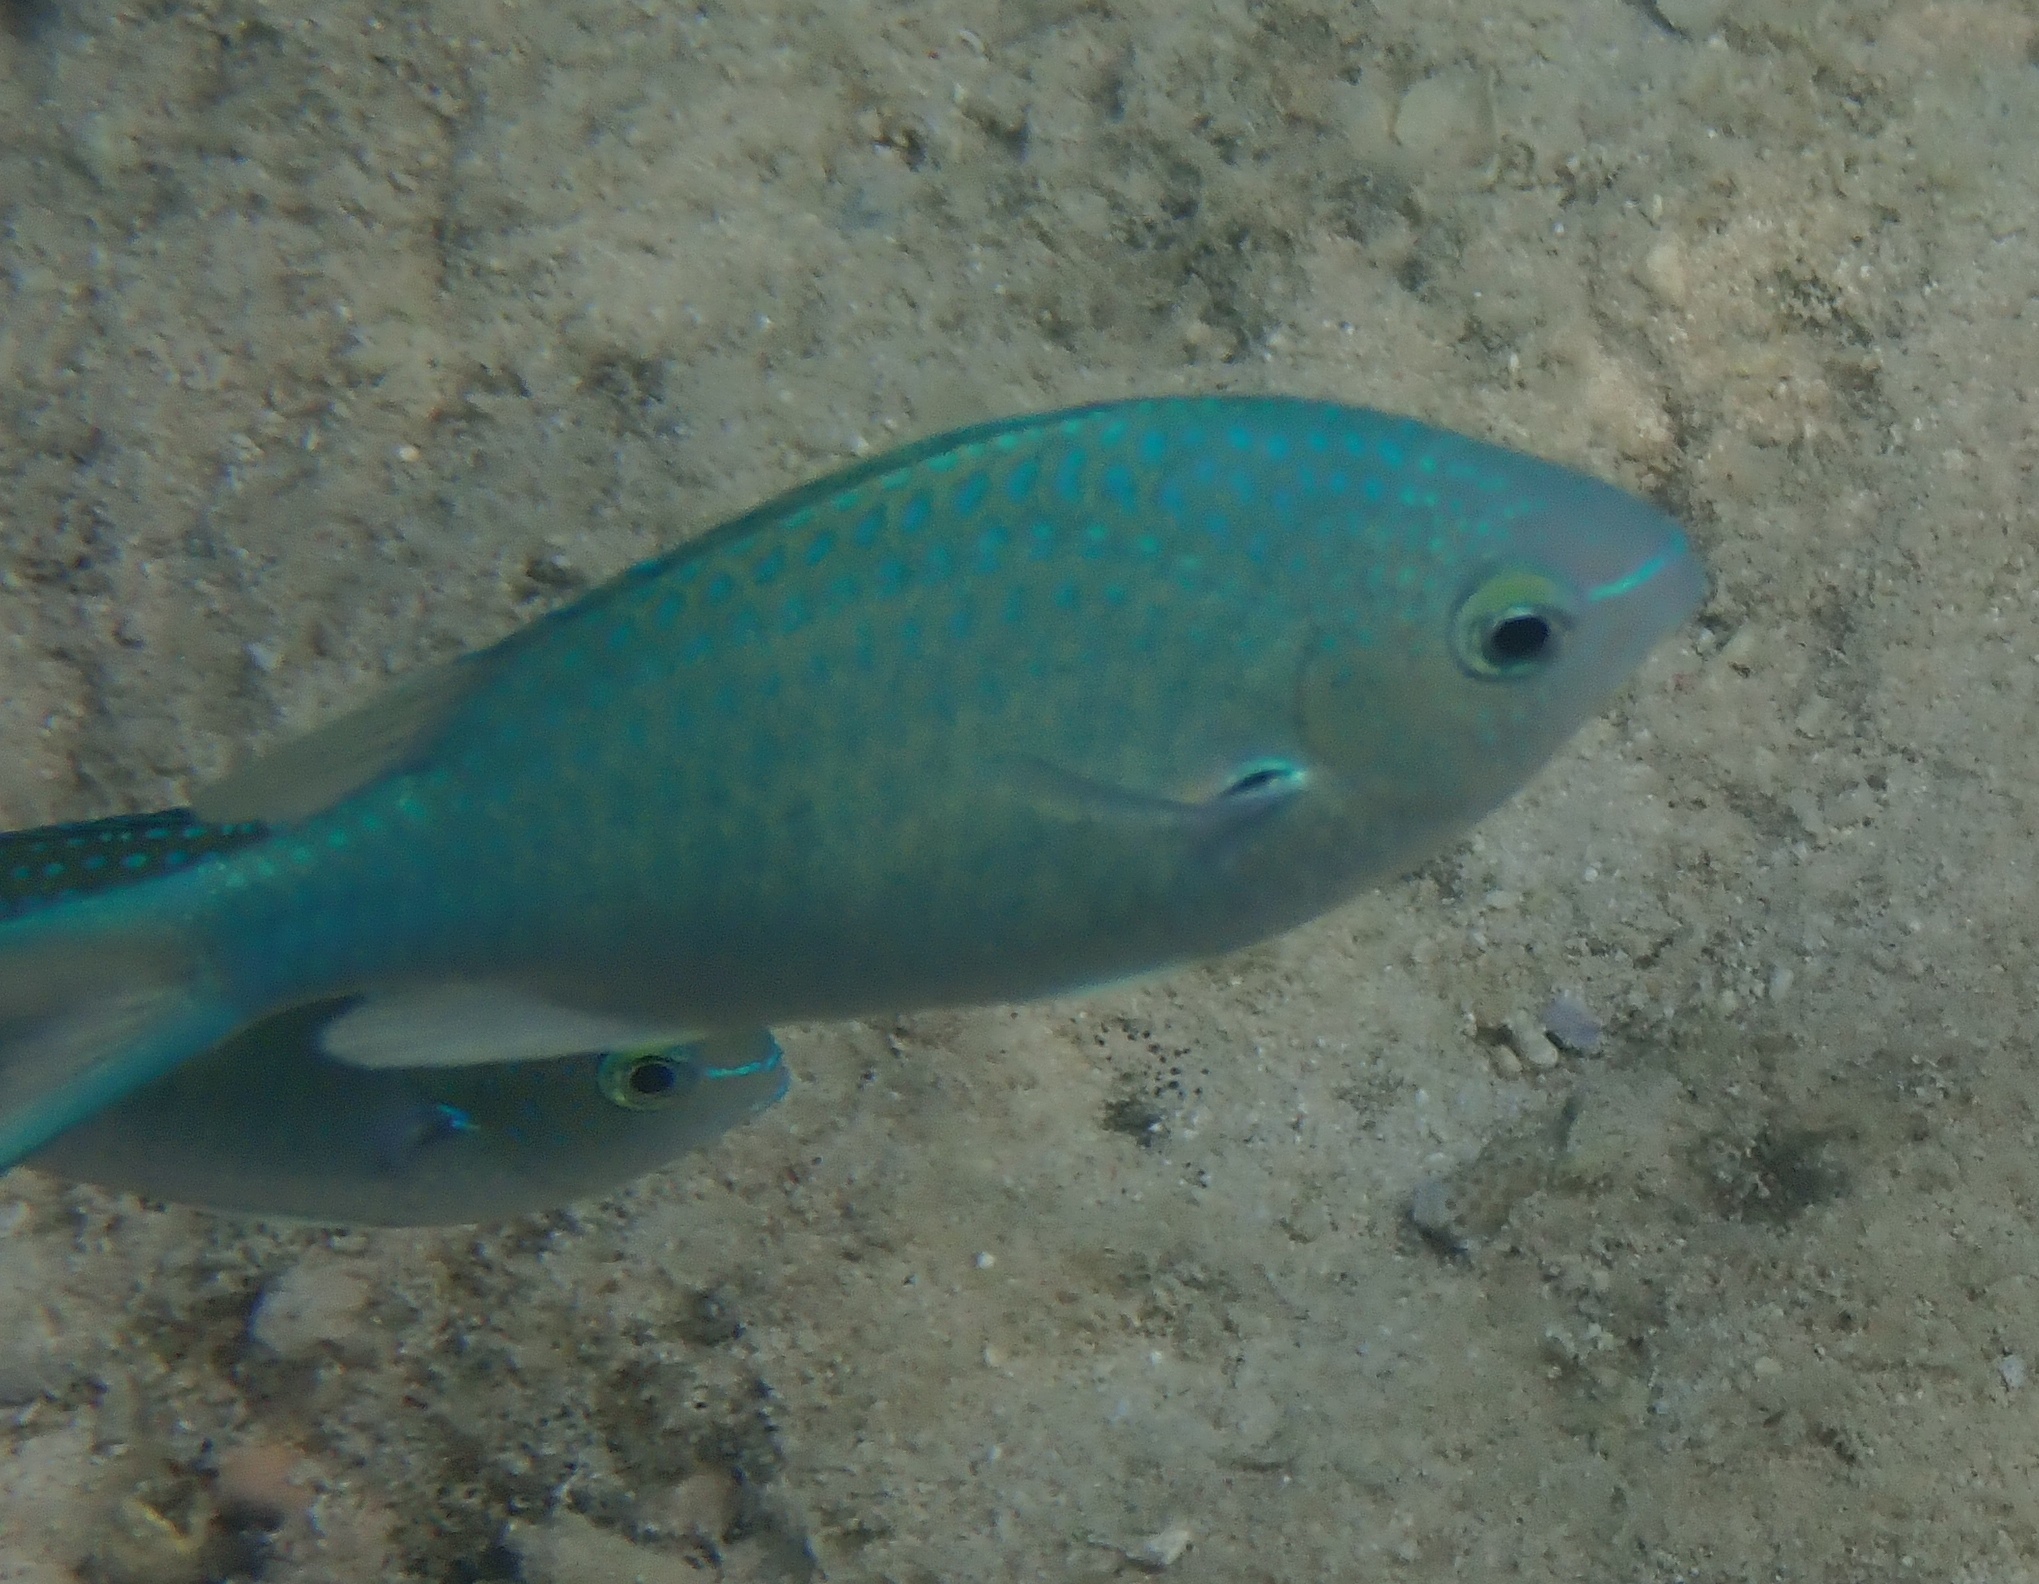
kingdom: Animalia
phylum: Chordata
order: Perciformes
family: Pomacentridae
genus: Chromis
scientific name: Chromis atripectoralis
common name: Black-axil chromis
